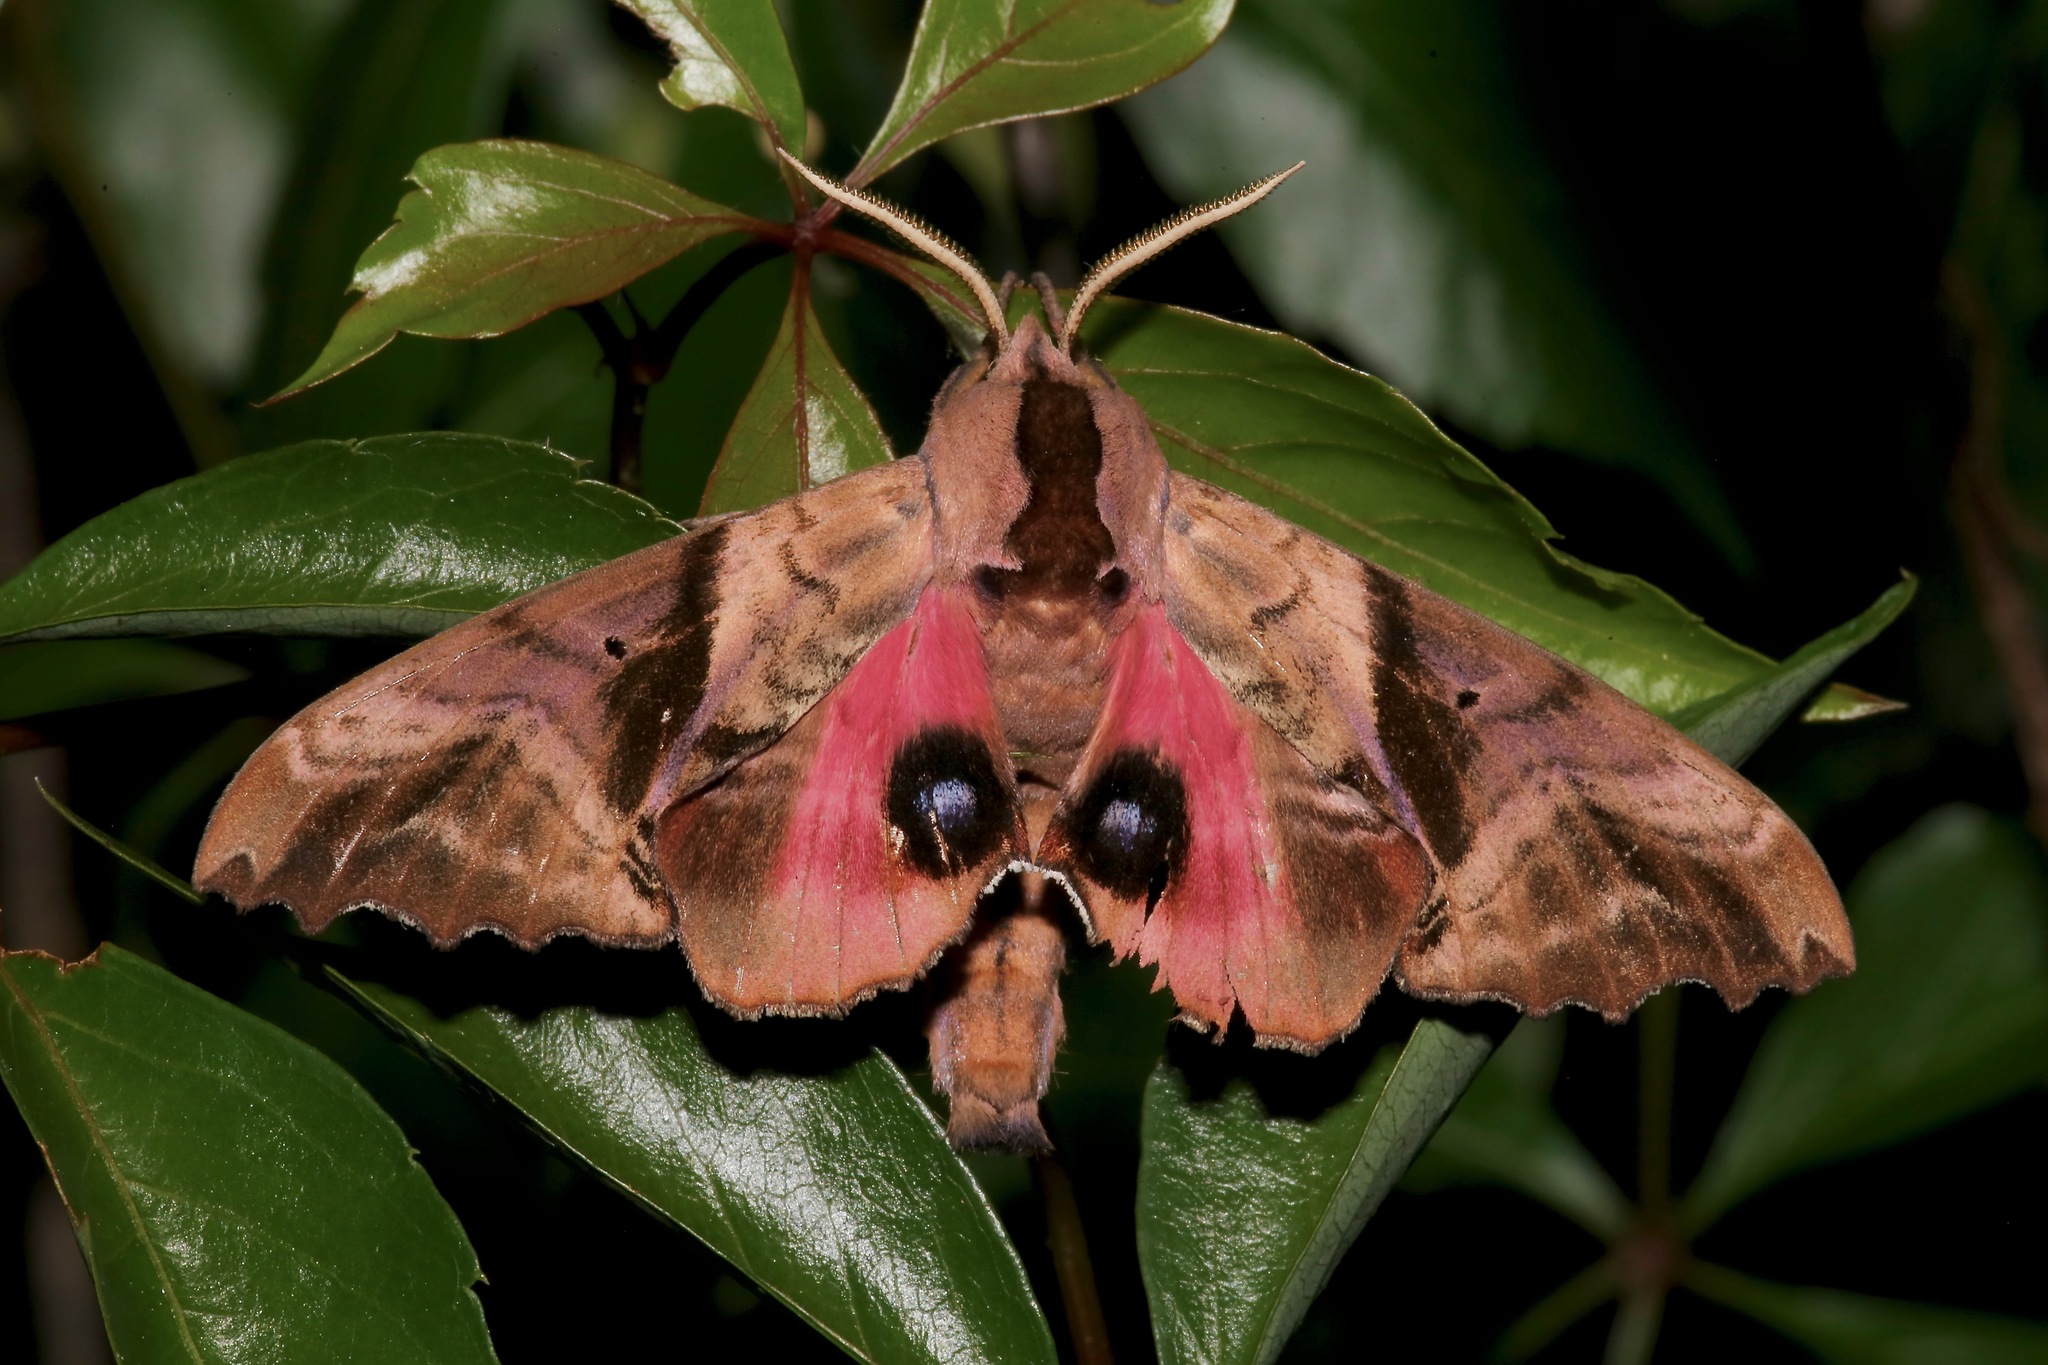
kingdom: Animalia
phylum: Arthropoda
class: Insecta
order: Lepidoptera
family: Sphingidae
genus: Paonias
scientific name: Paonias excaecata
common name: Blind-eyed sphinx
